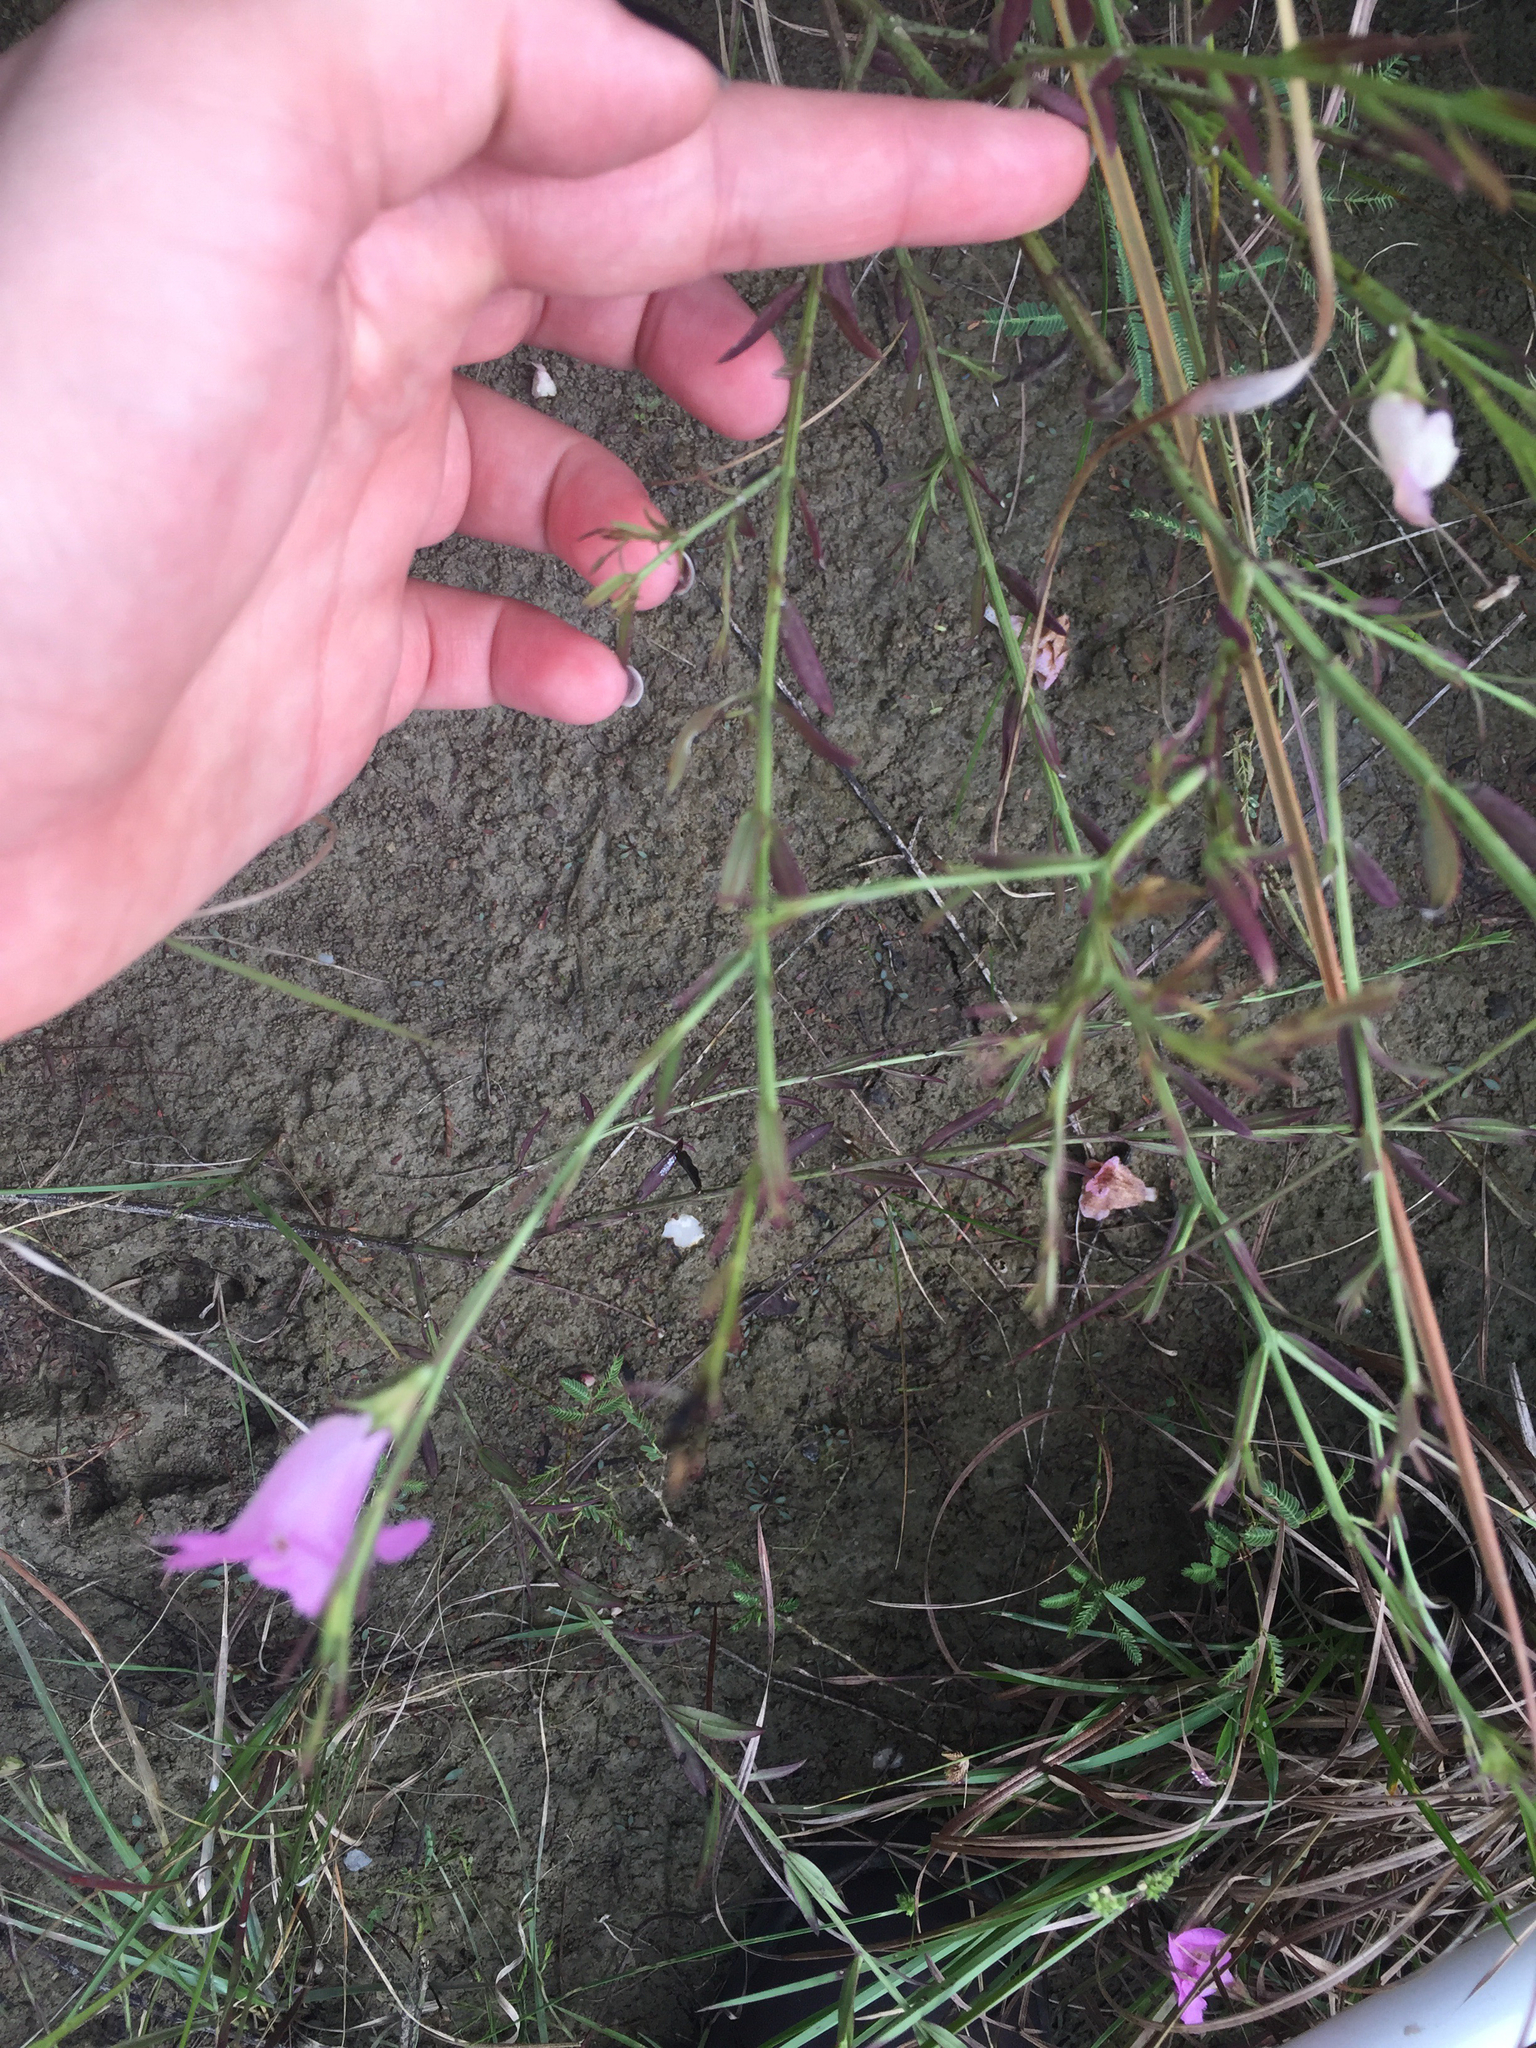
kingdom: Plantae
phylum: Tracheophyta
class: Magnoliopsida
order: Lamiales
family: Orobanchaceae
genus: Agalinis
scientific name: Agalinis heterophylla
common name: Prairie agalinis
